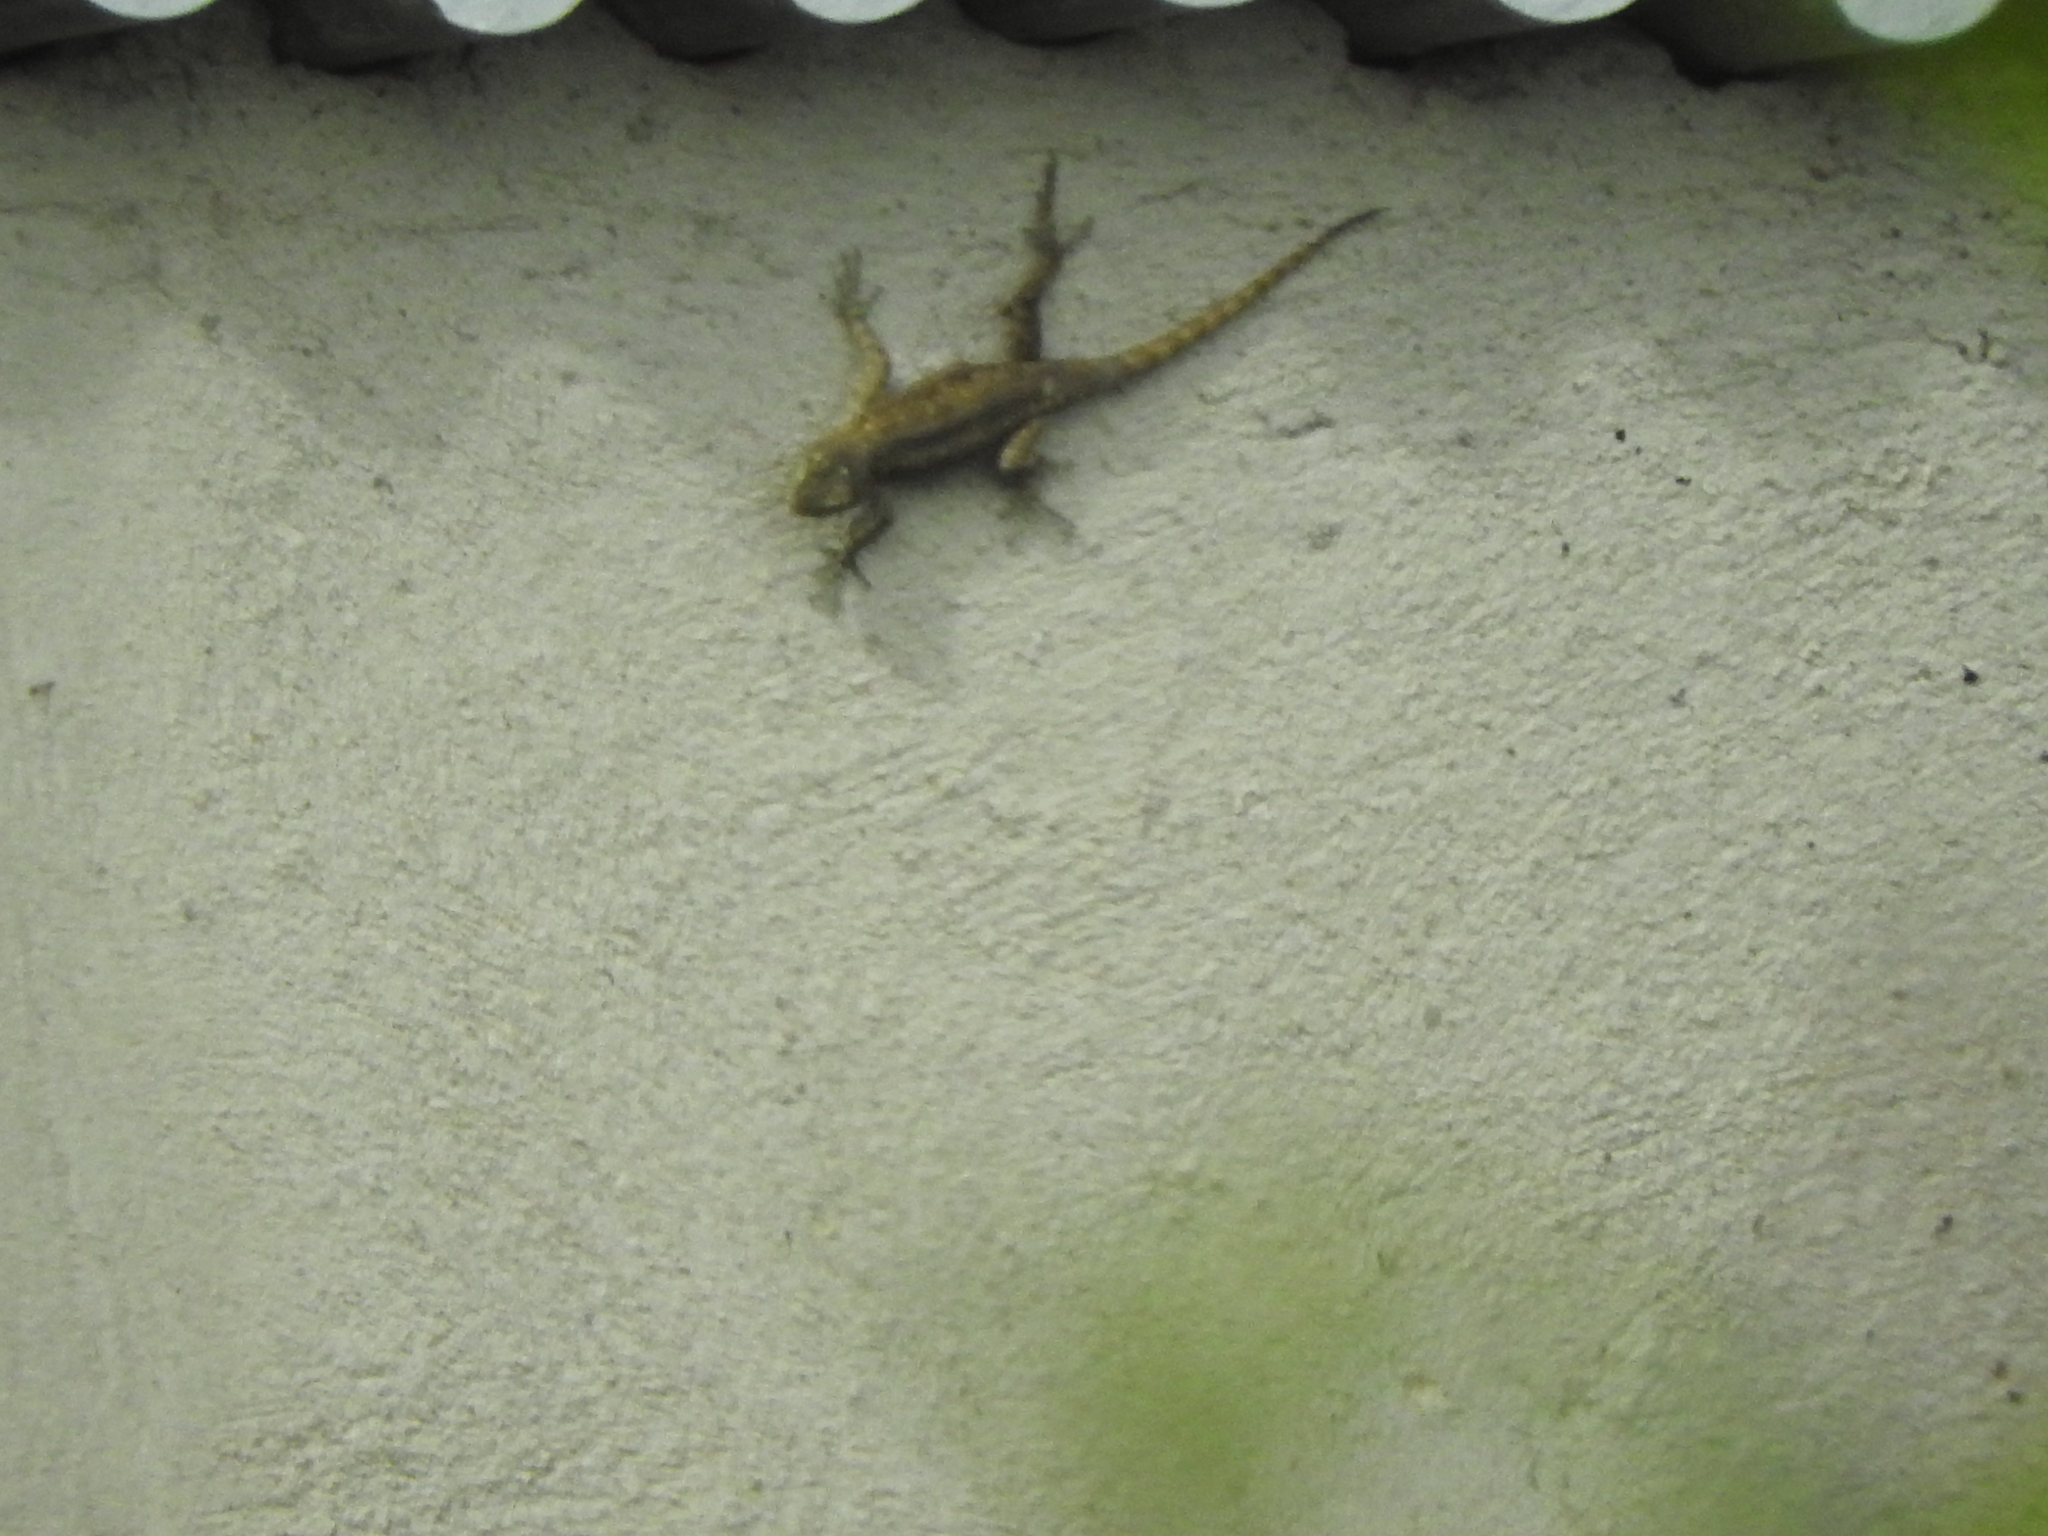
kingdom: Animalia
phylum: Chordata
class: Squamata
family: Phrynosomatidae
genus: Sceloporus
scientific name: Sceloporus grammicus
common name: Mesquite lizard
